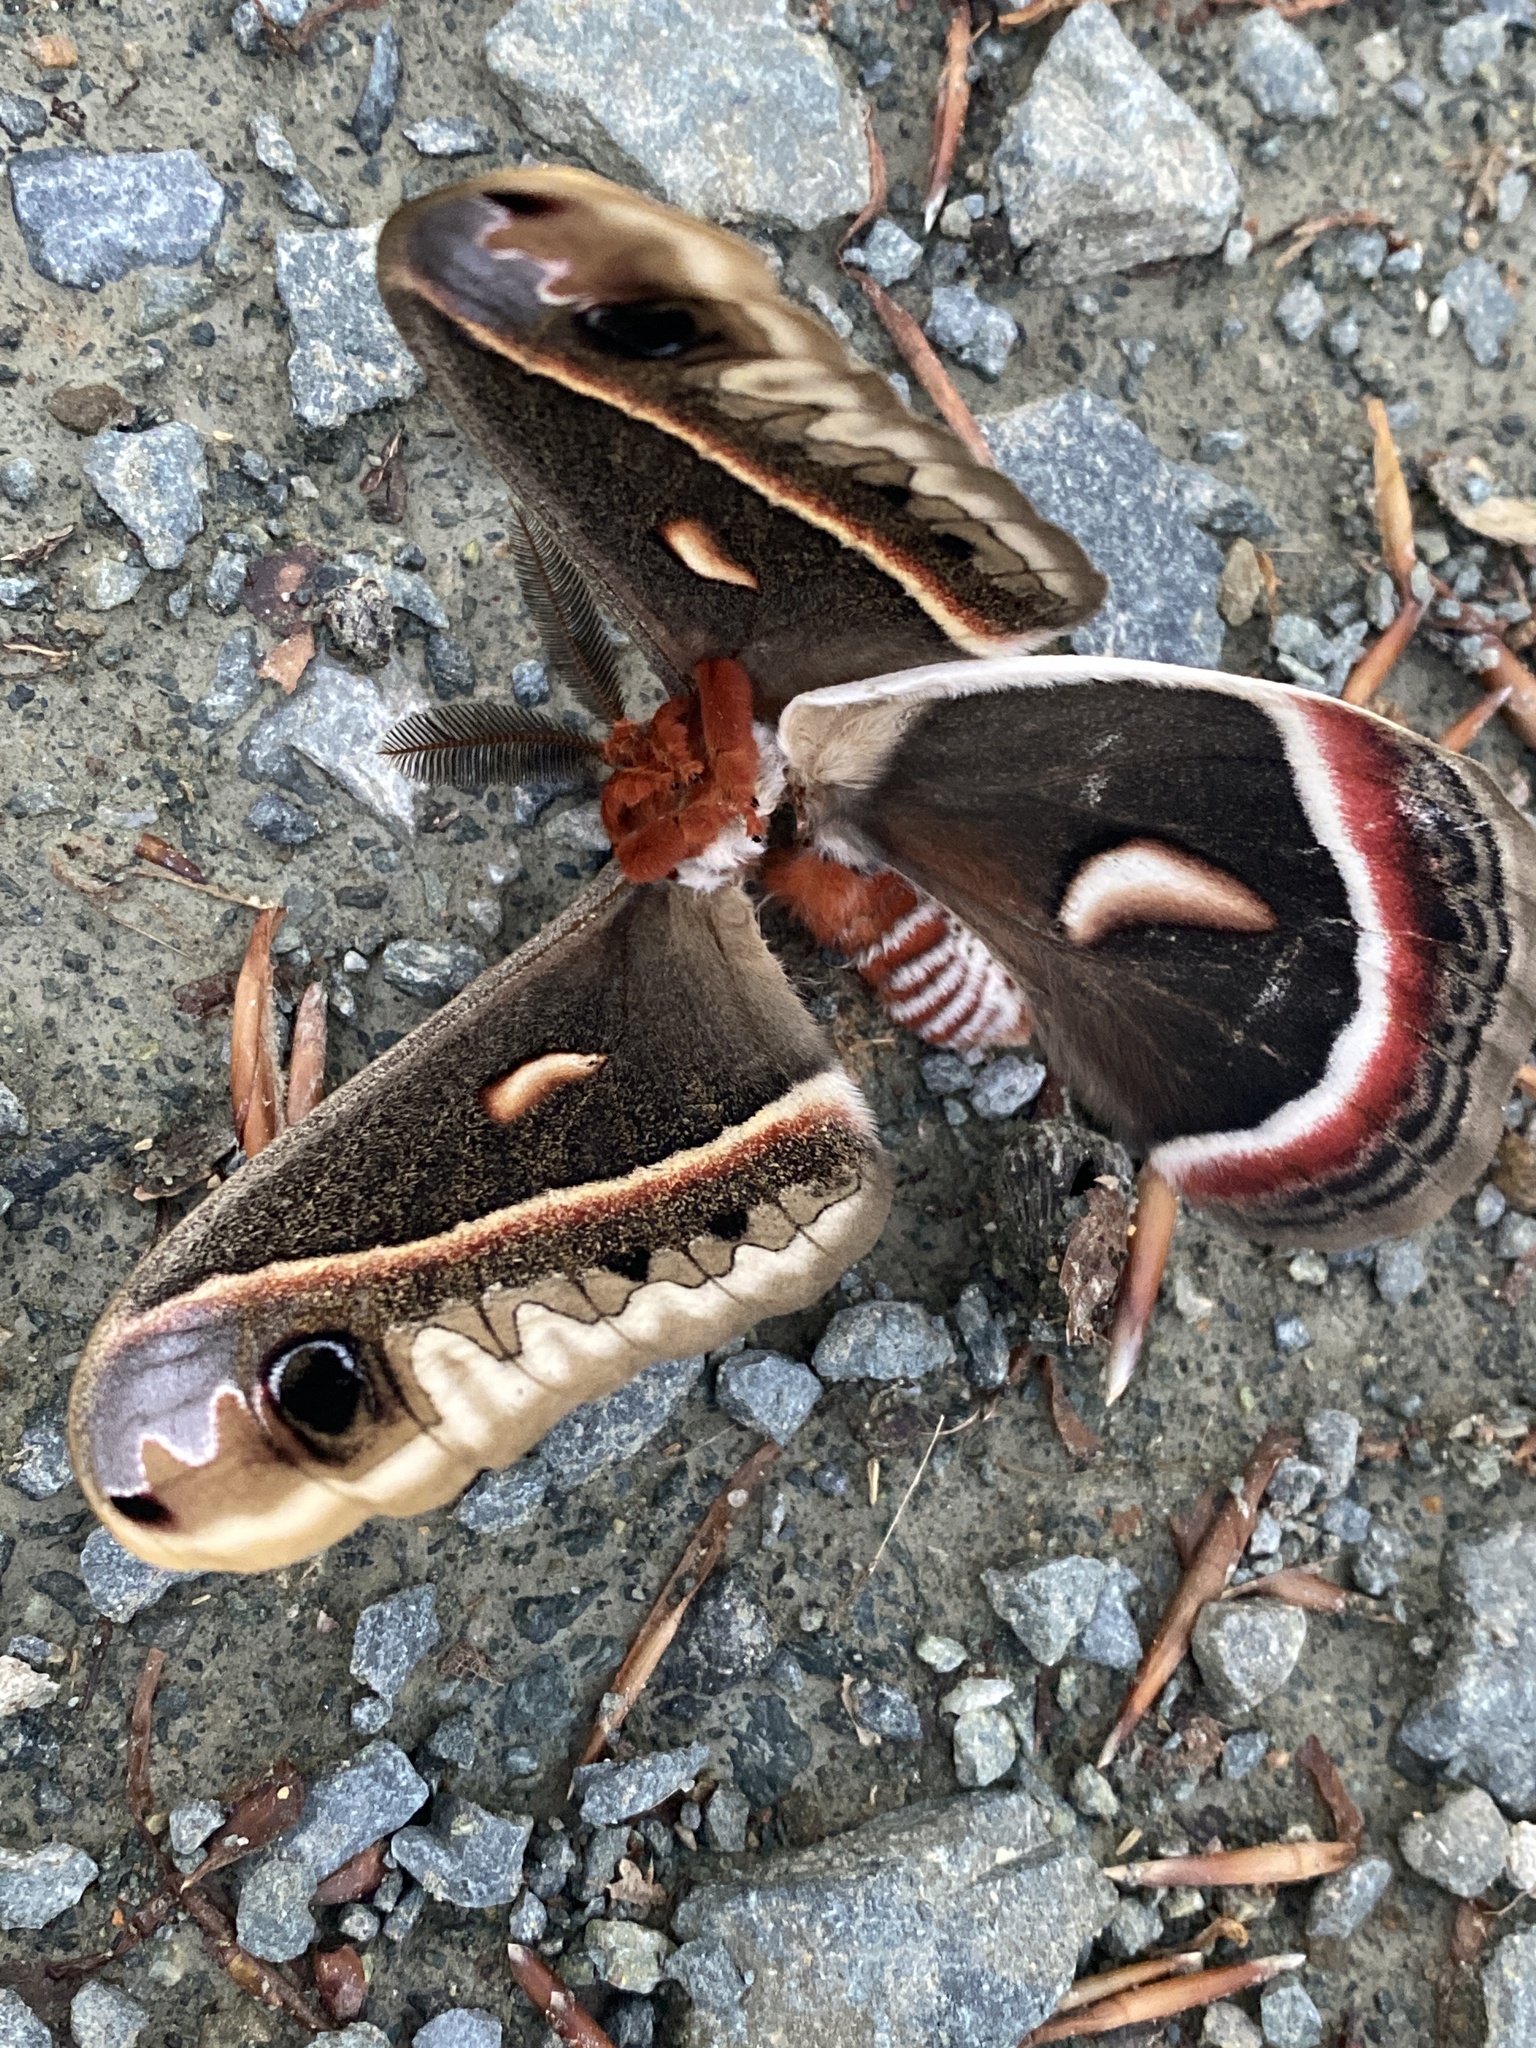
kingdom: Animalia
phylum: Arthropoda
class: Insecta
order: Lepidoptera
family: Saturniidae
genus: Hyalophora
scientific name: Hyalophora cecropia
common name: Cecropia silkmoth
